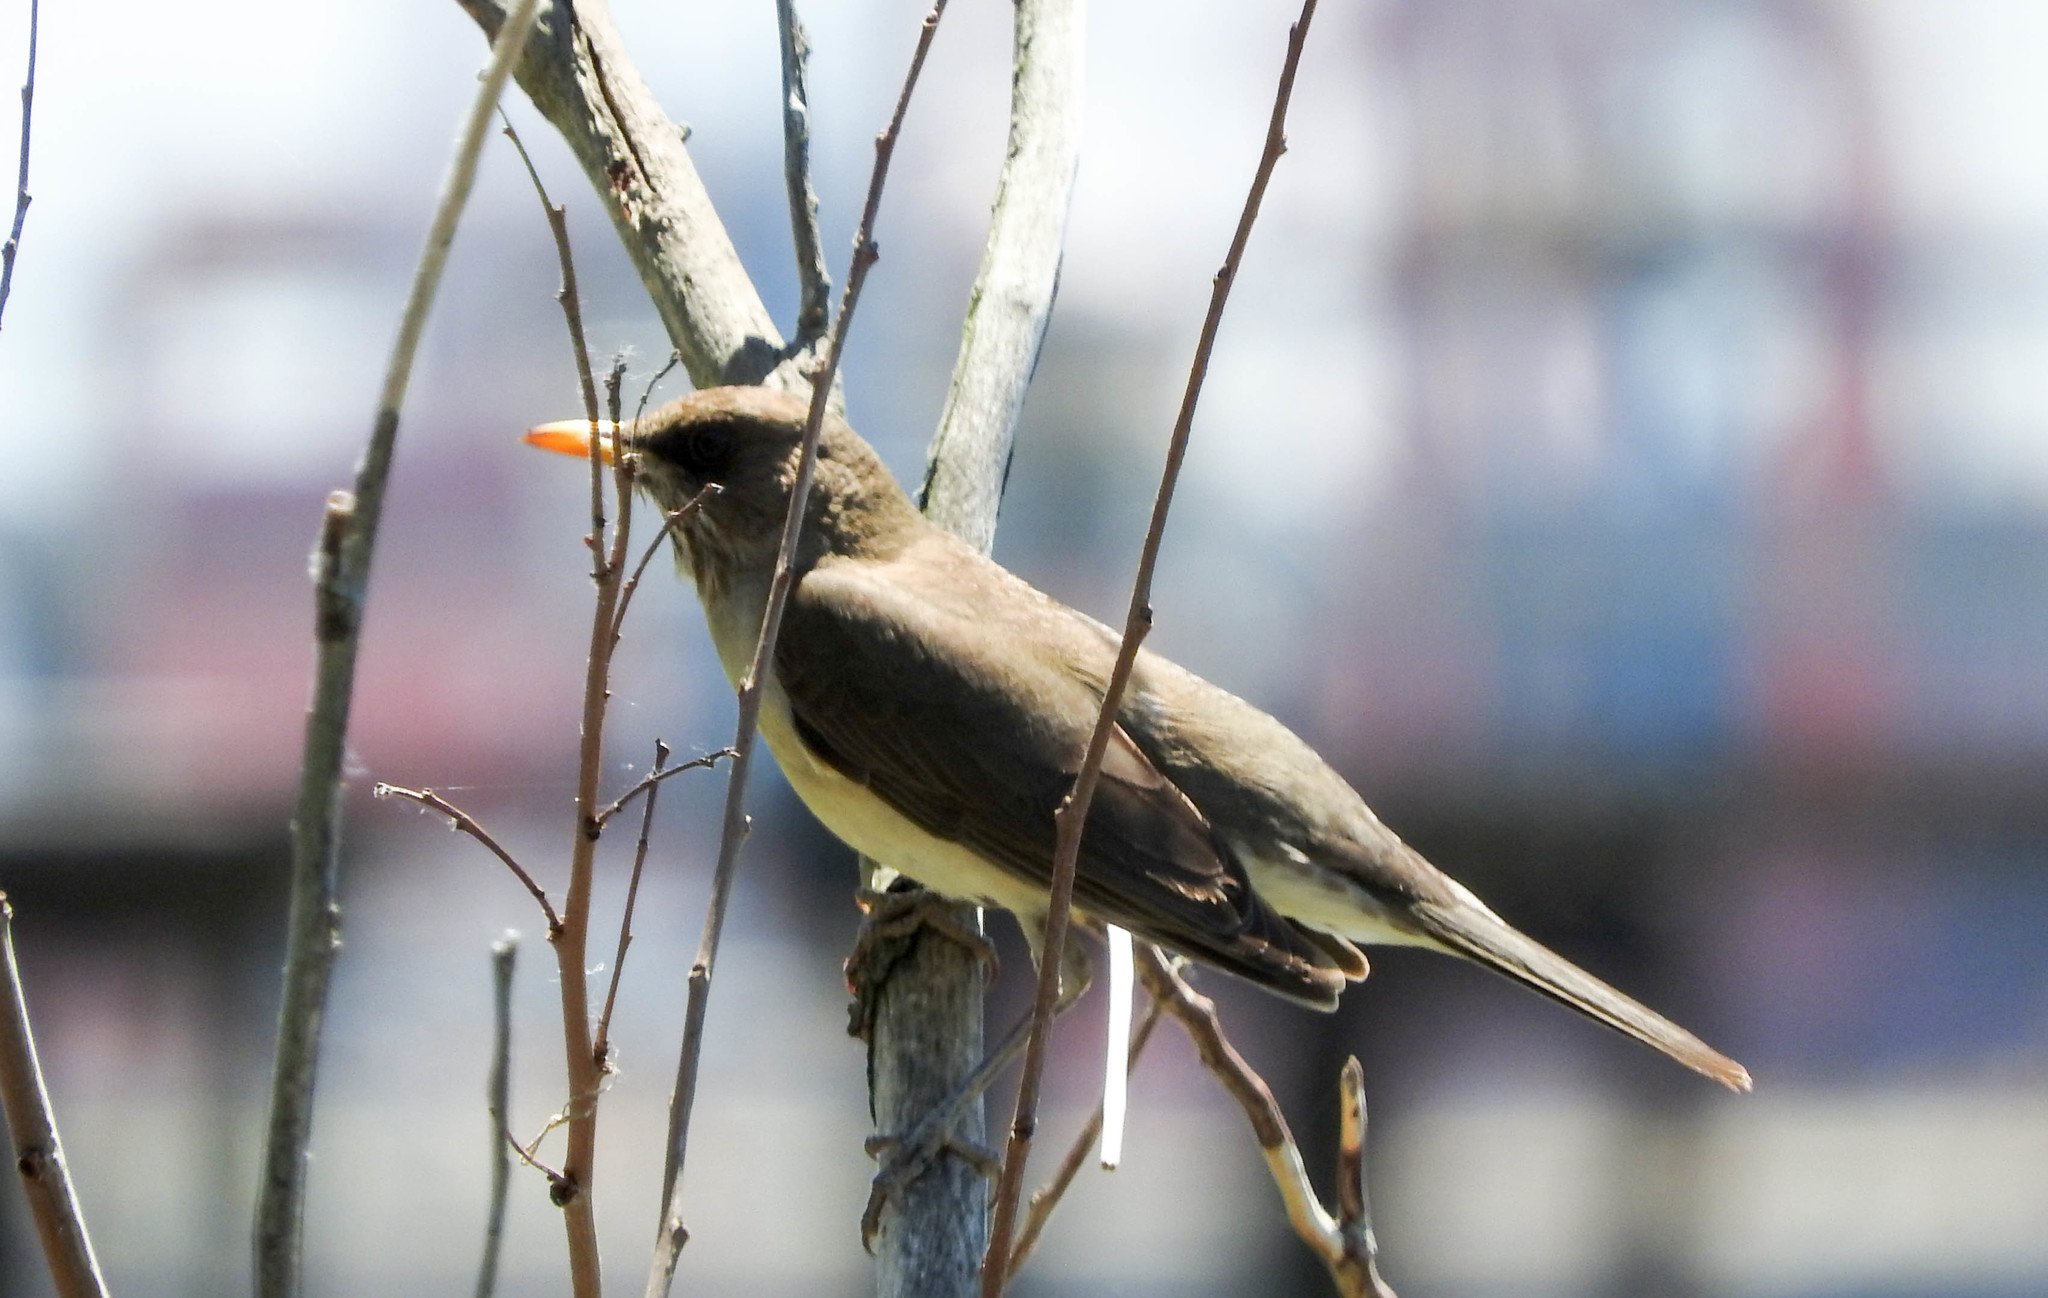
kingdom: Animalia
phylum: Chordata
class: Aves
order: Passeriformes
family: Turdidae
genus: Turdus
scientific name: Turdus amaurochalinus
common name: Creamy-bellied thrush
